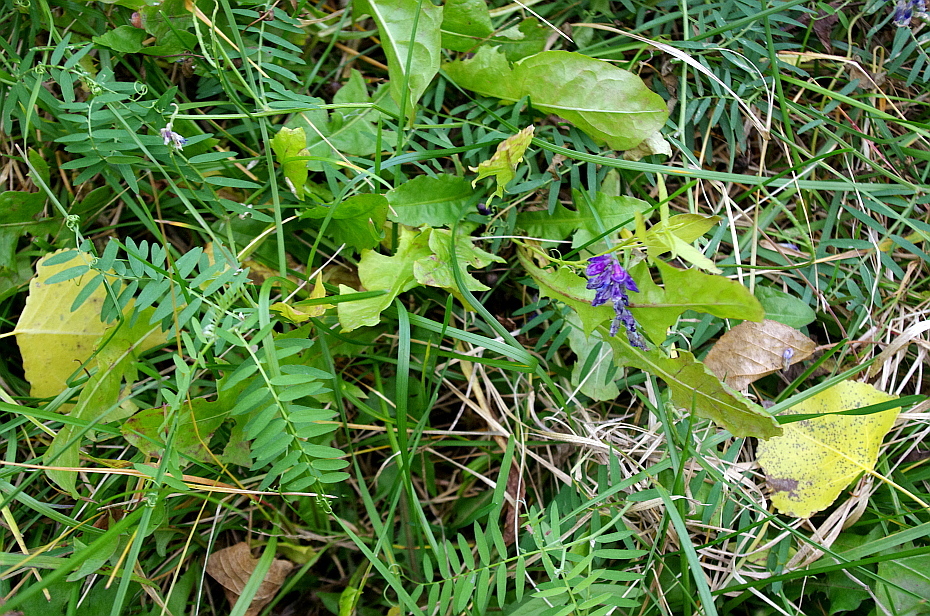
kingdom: Plantae
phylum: Tracheophyta
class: Magnoliopsida
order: Fabales
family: Fabaceae
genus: Vicia
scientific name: Vicia cracca
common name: Bird vetch
